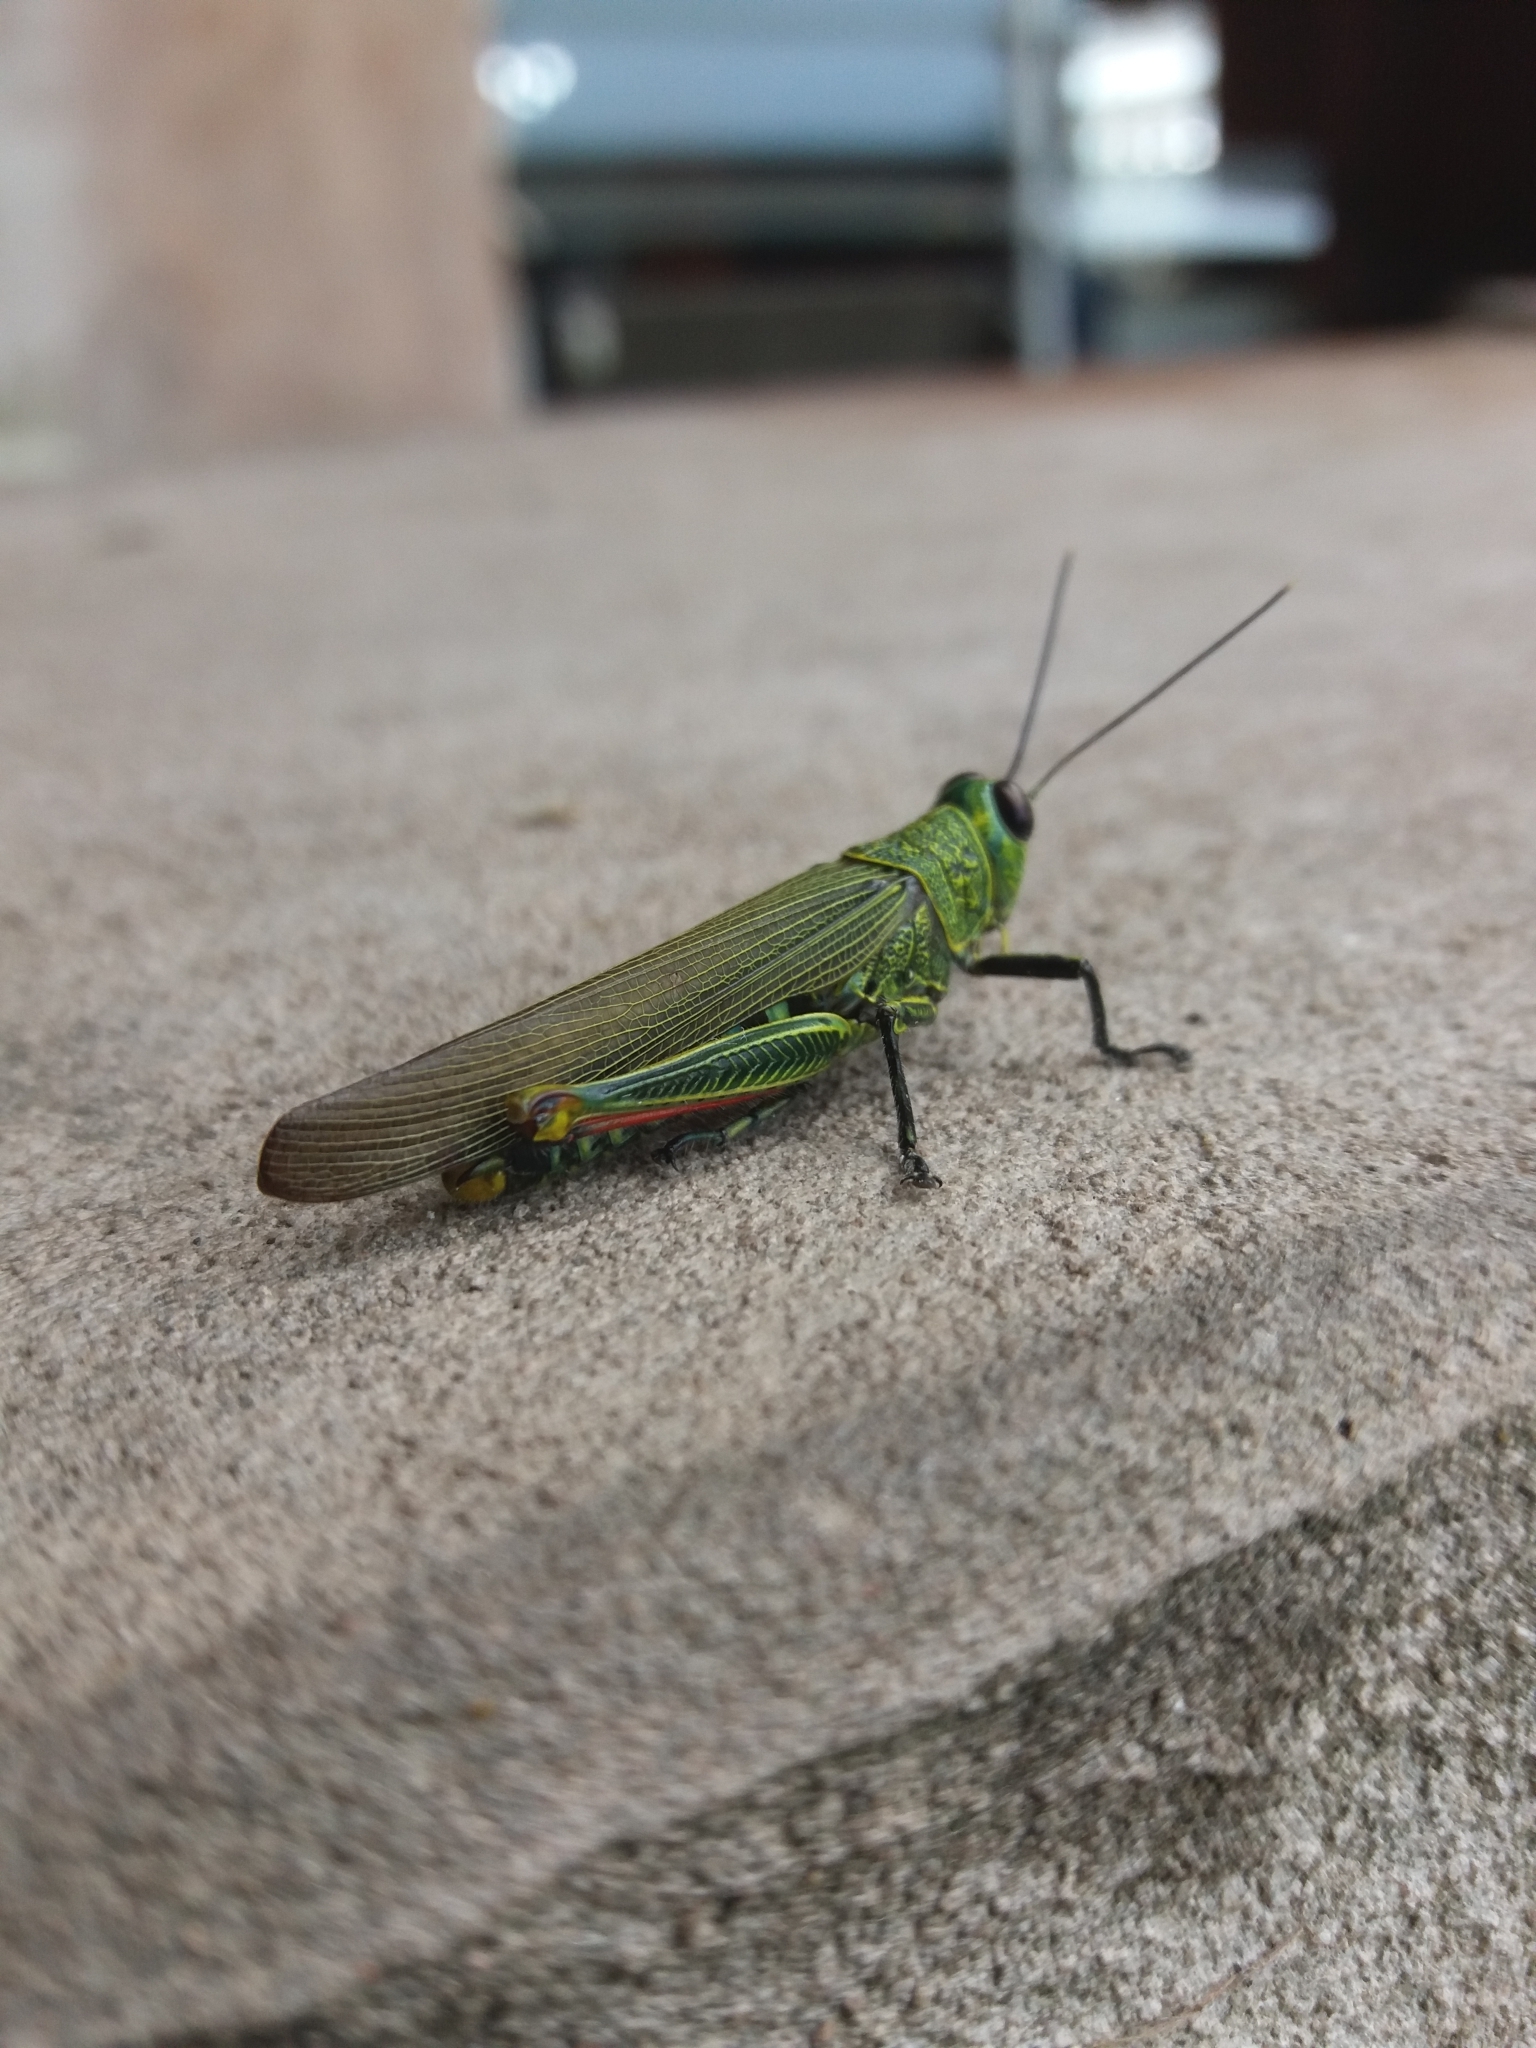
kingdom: Animalia
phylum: Arthropoda
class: Insecta
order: Orthoptera
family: Acrididae
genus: Coscineuta
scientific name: Coscineuta virens
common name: Moruga grasshopper
